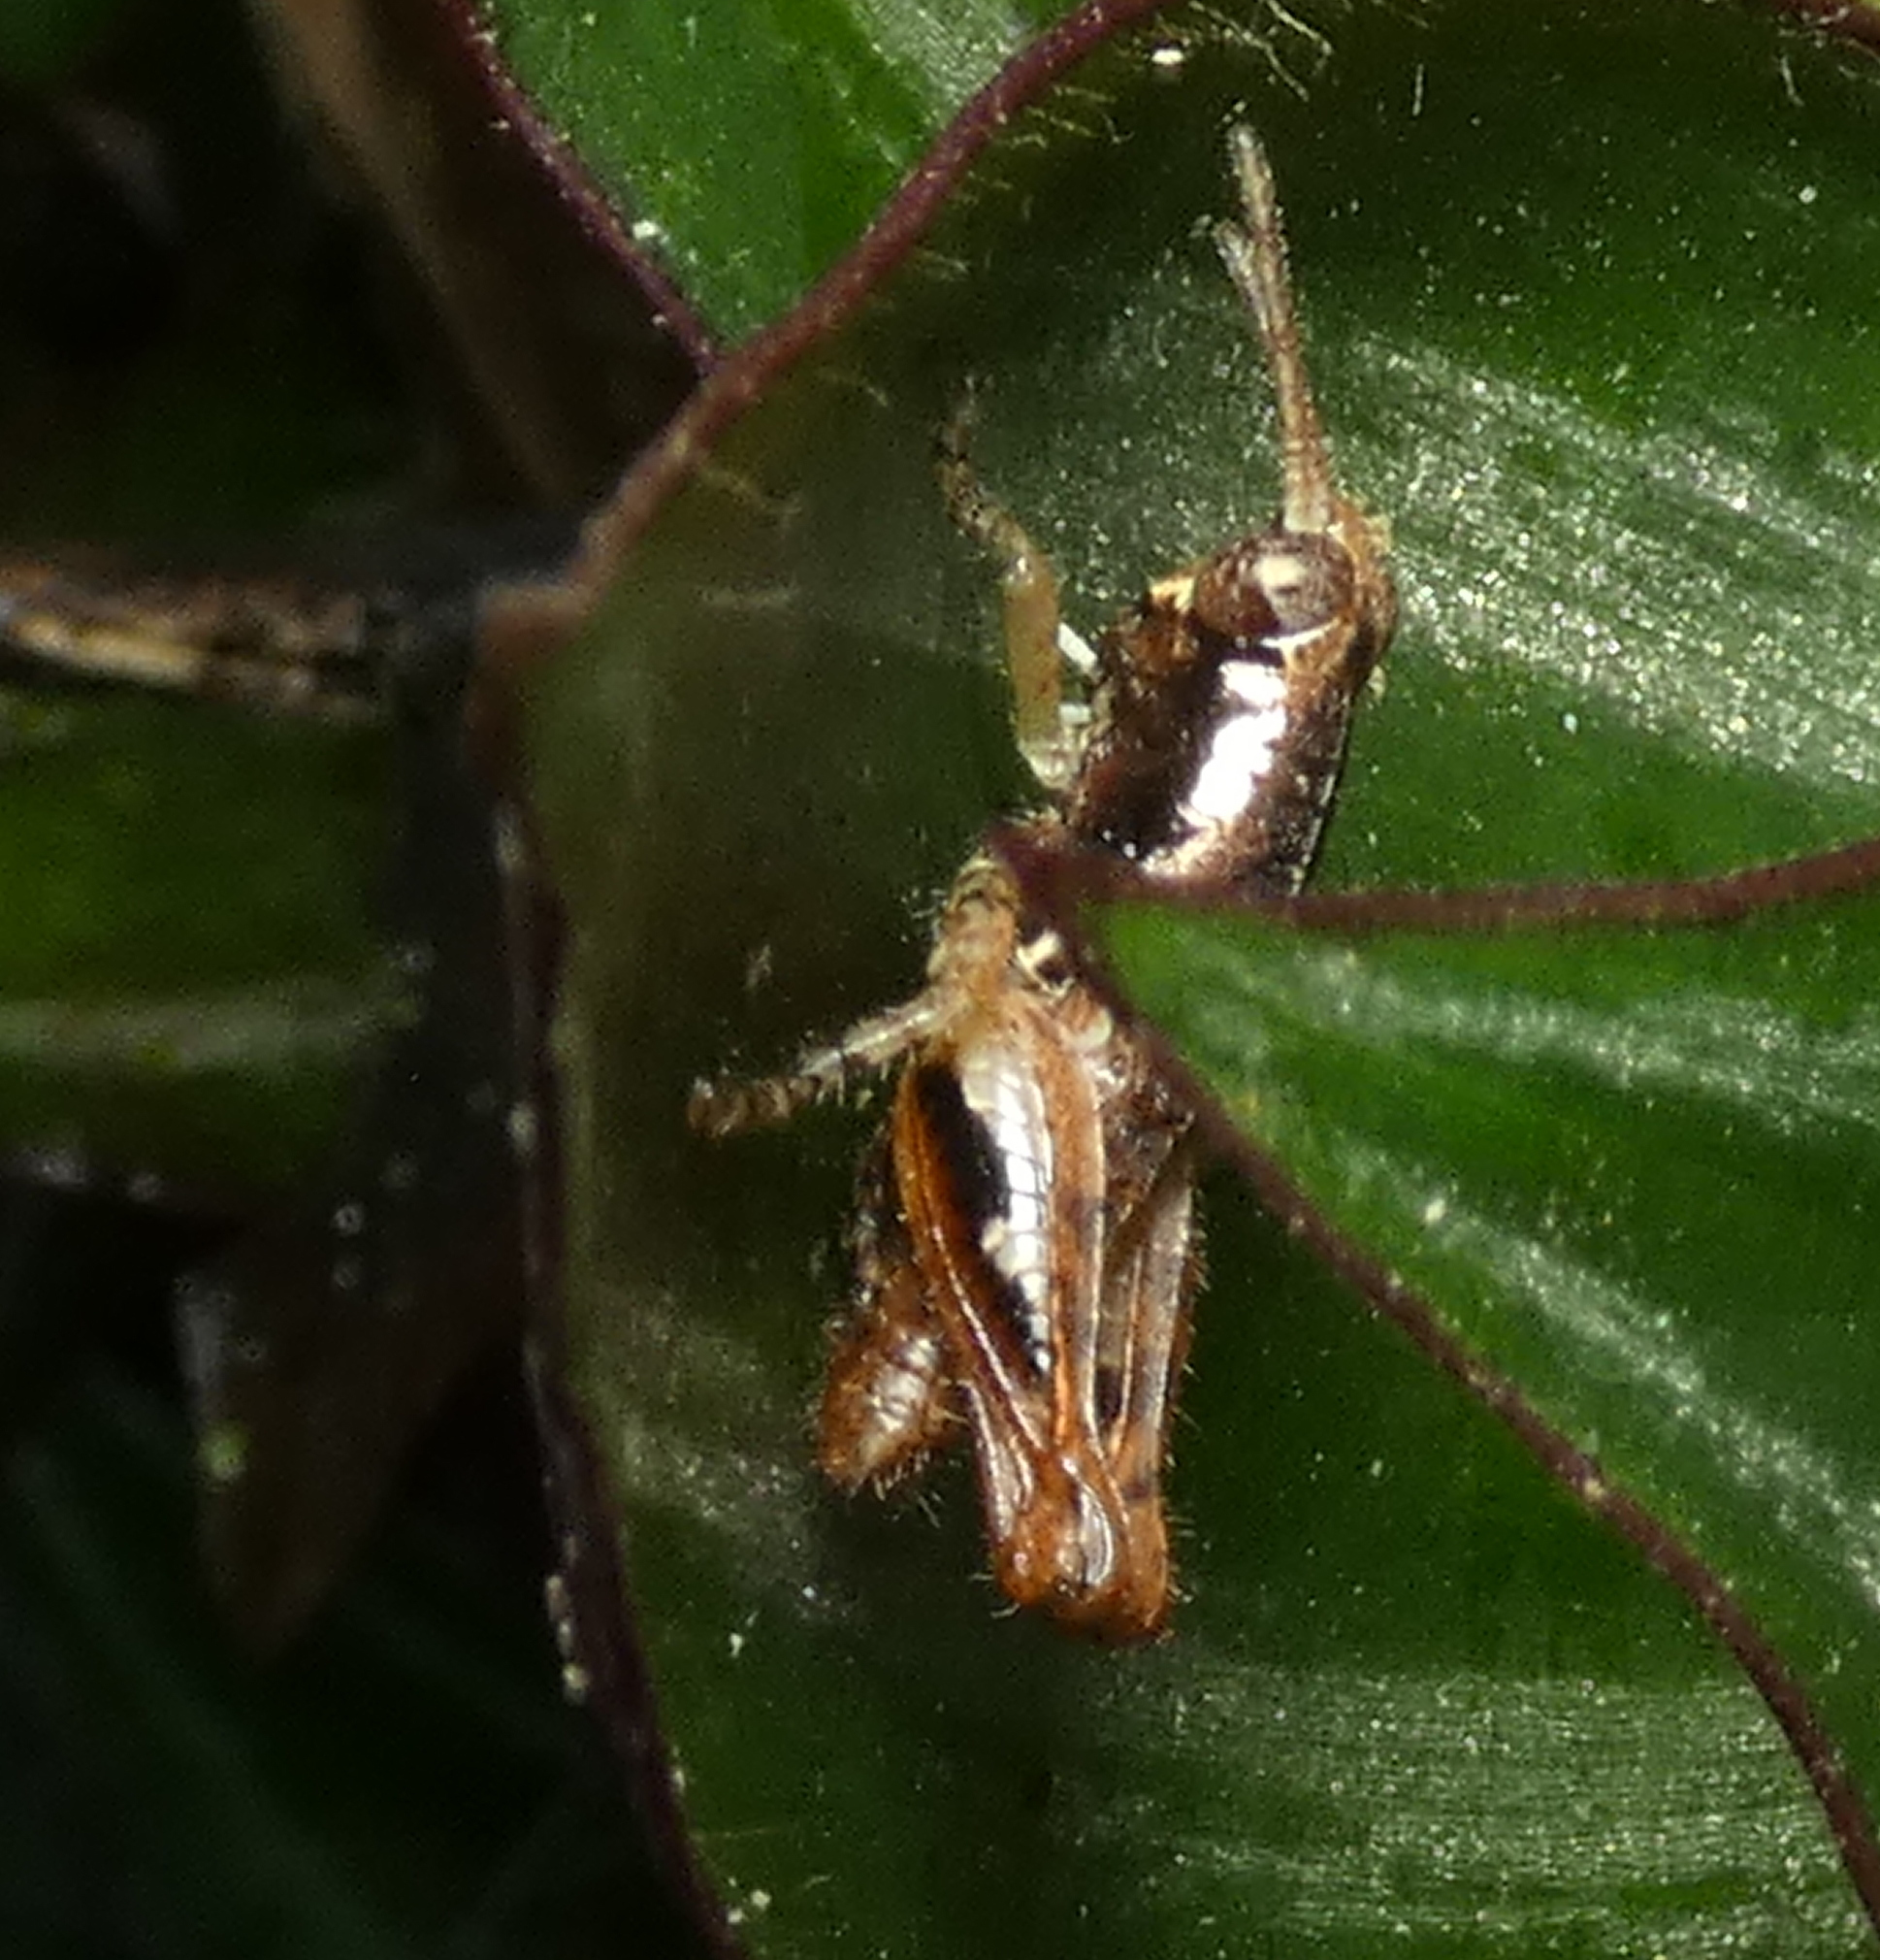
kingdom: Animalia
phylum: Arthropoda
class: Insecta
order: Orthoptera
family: Acrididae
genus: Eujivarus
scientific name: Eujivarus meridionalis
